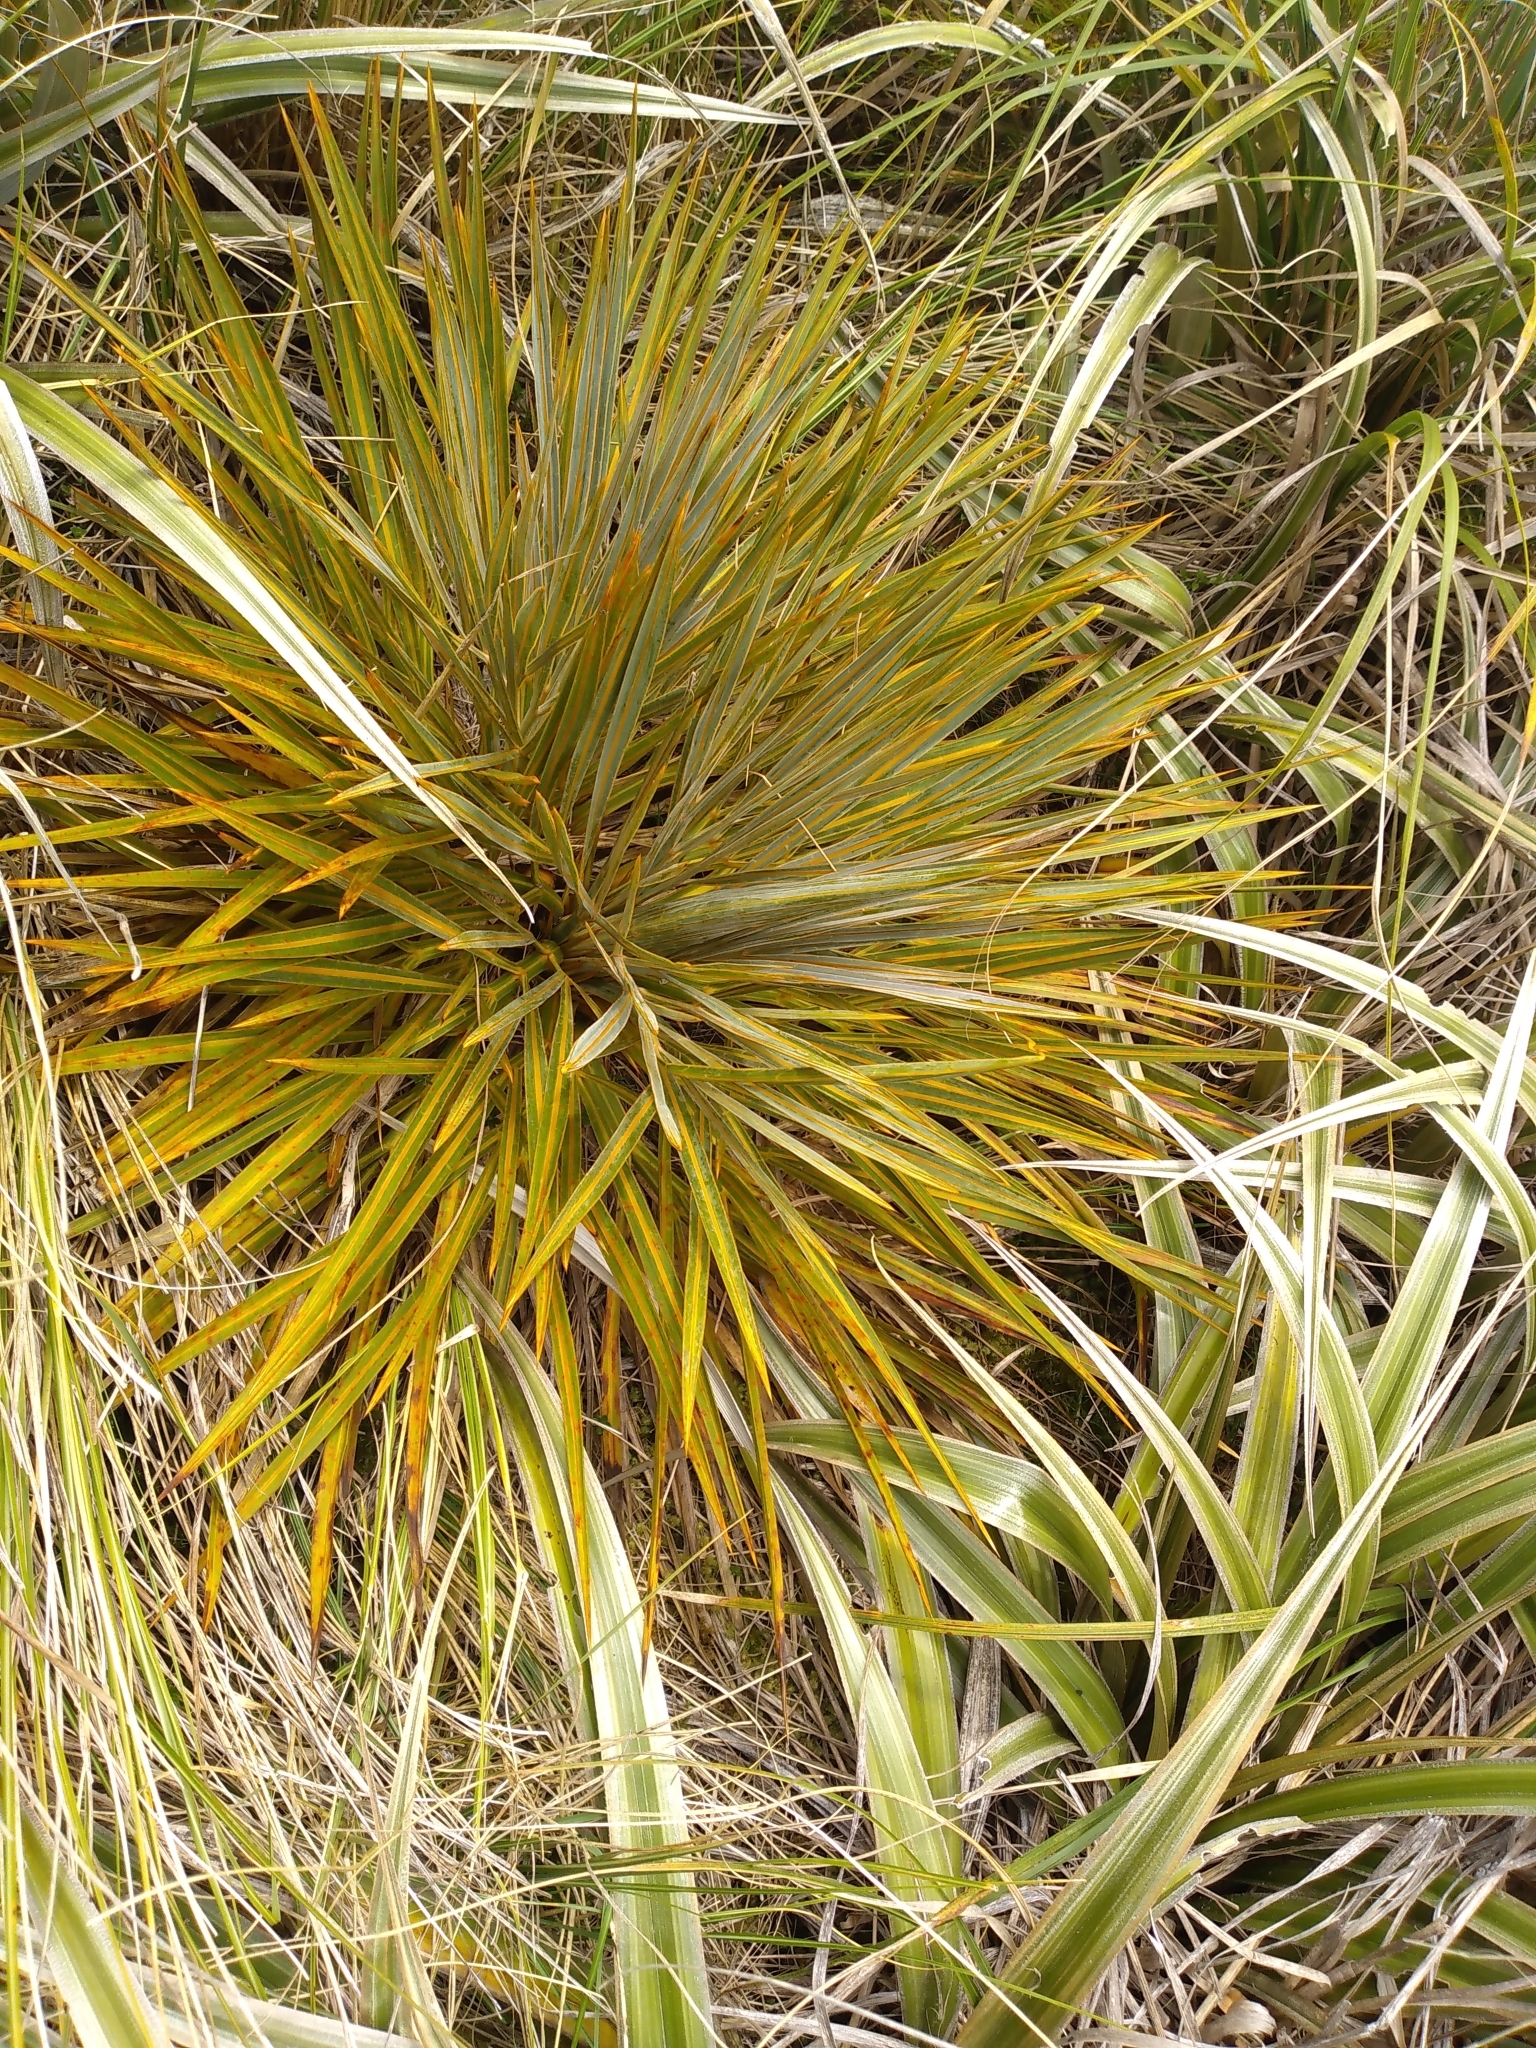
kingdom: Plantae
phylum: Tracheophyta
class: Magnoliopsida
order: Apiales
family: Apiaceae
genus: Aciphylla
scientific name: Aciphylla colensoi
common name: Colenso's spaniard
